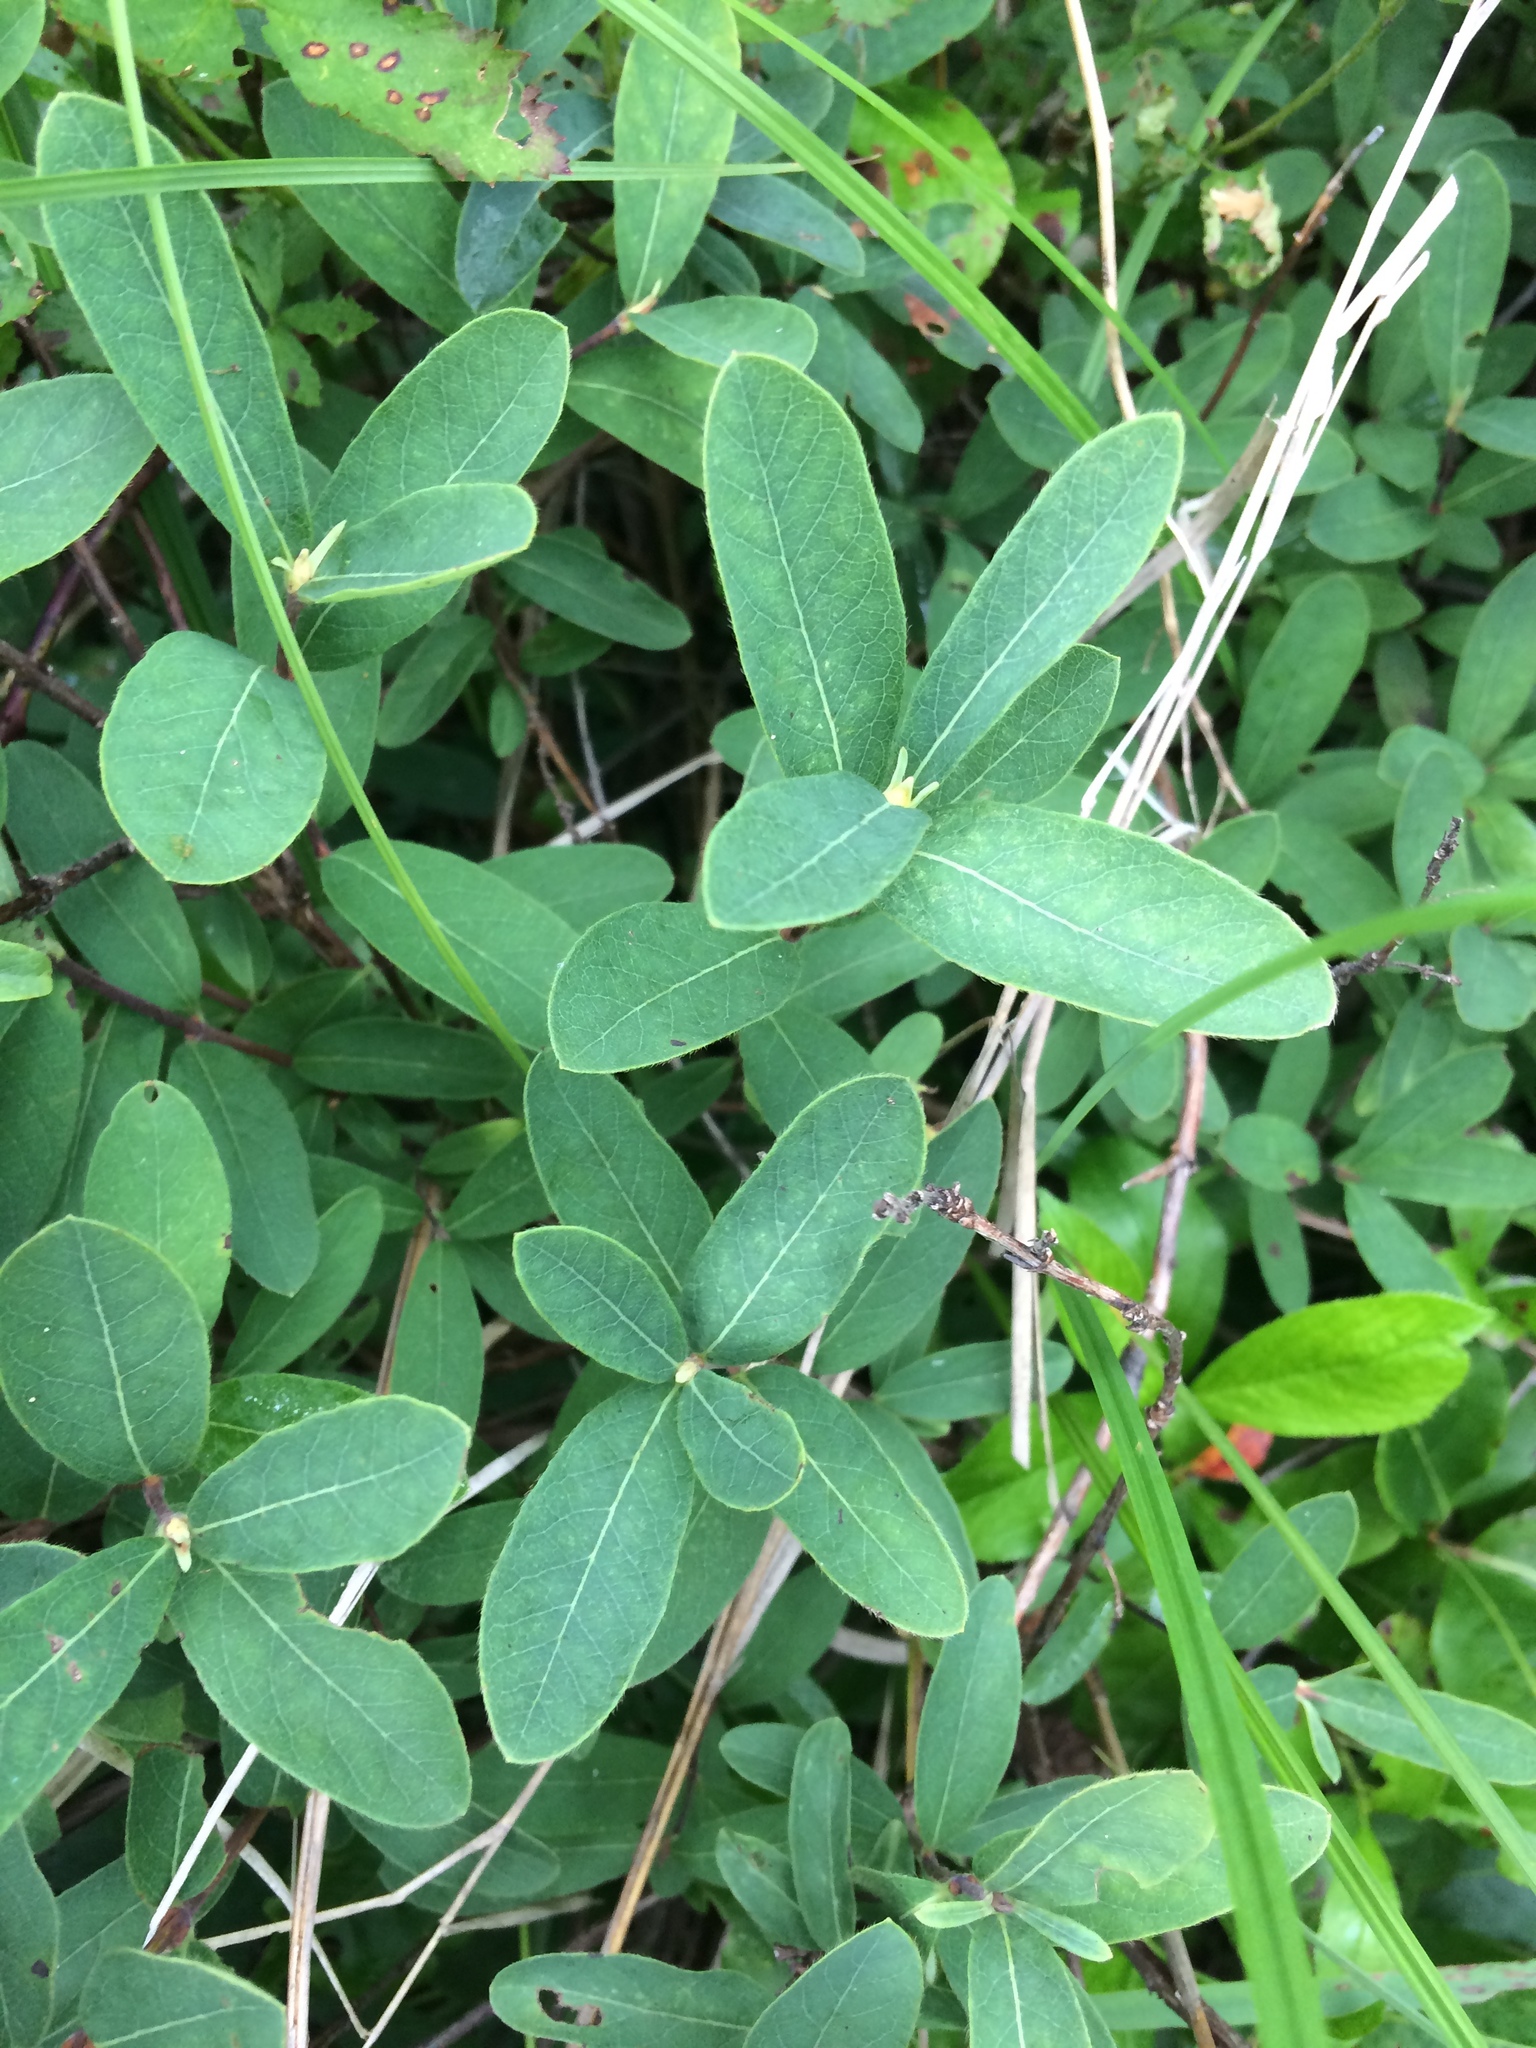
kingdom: Plantae
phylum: Tracheophyta
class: Magnoliopsida
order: Dipsacales
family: Caprifoliaceae
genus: Lonicera
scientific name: Lonicera villosa
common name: Mountain fly-honeysuckle
